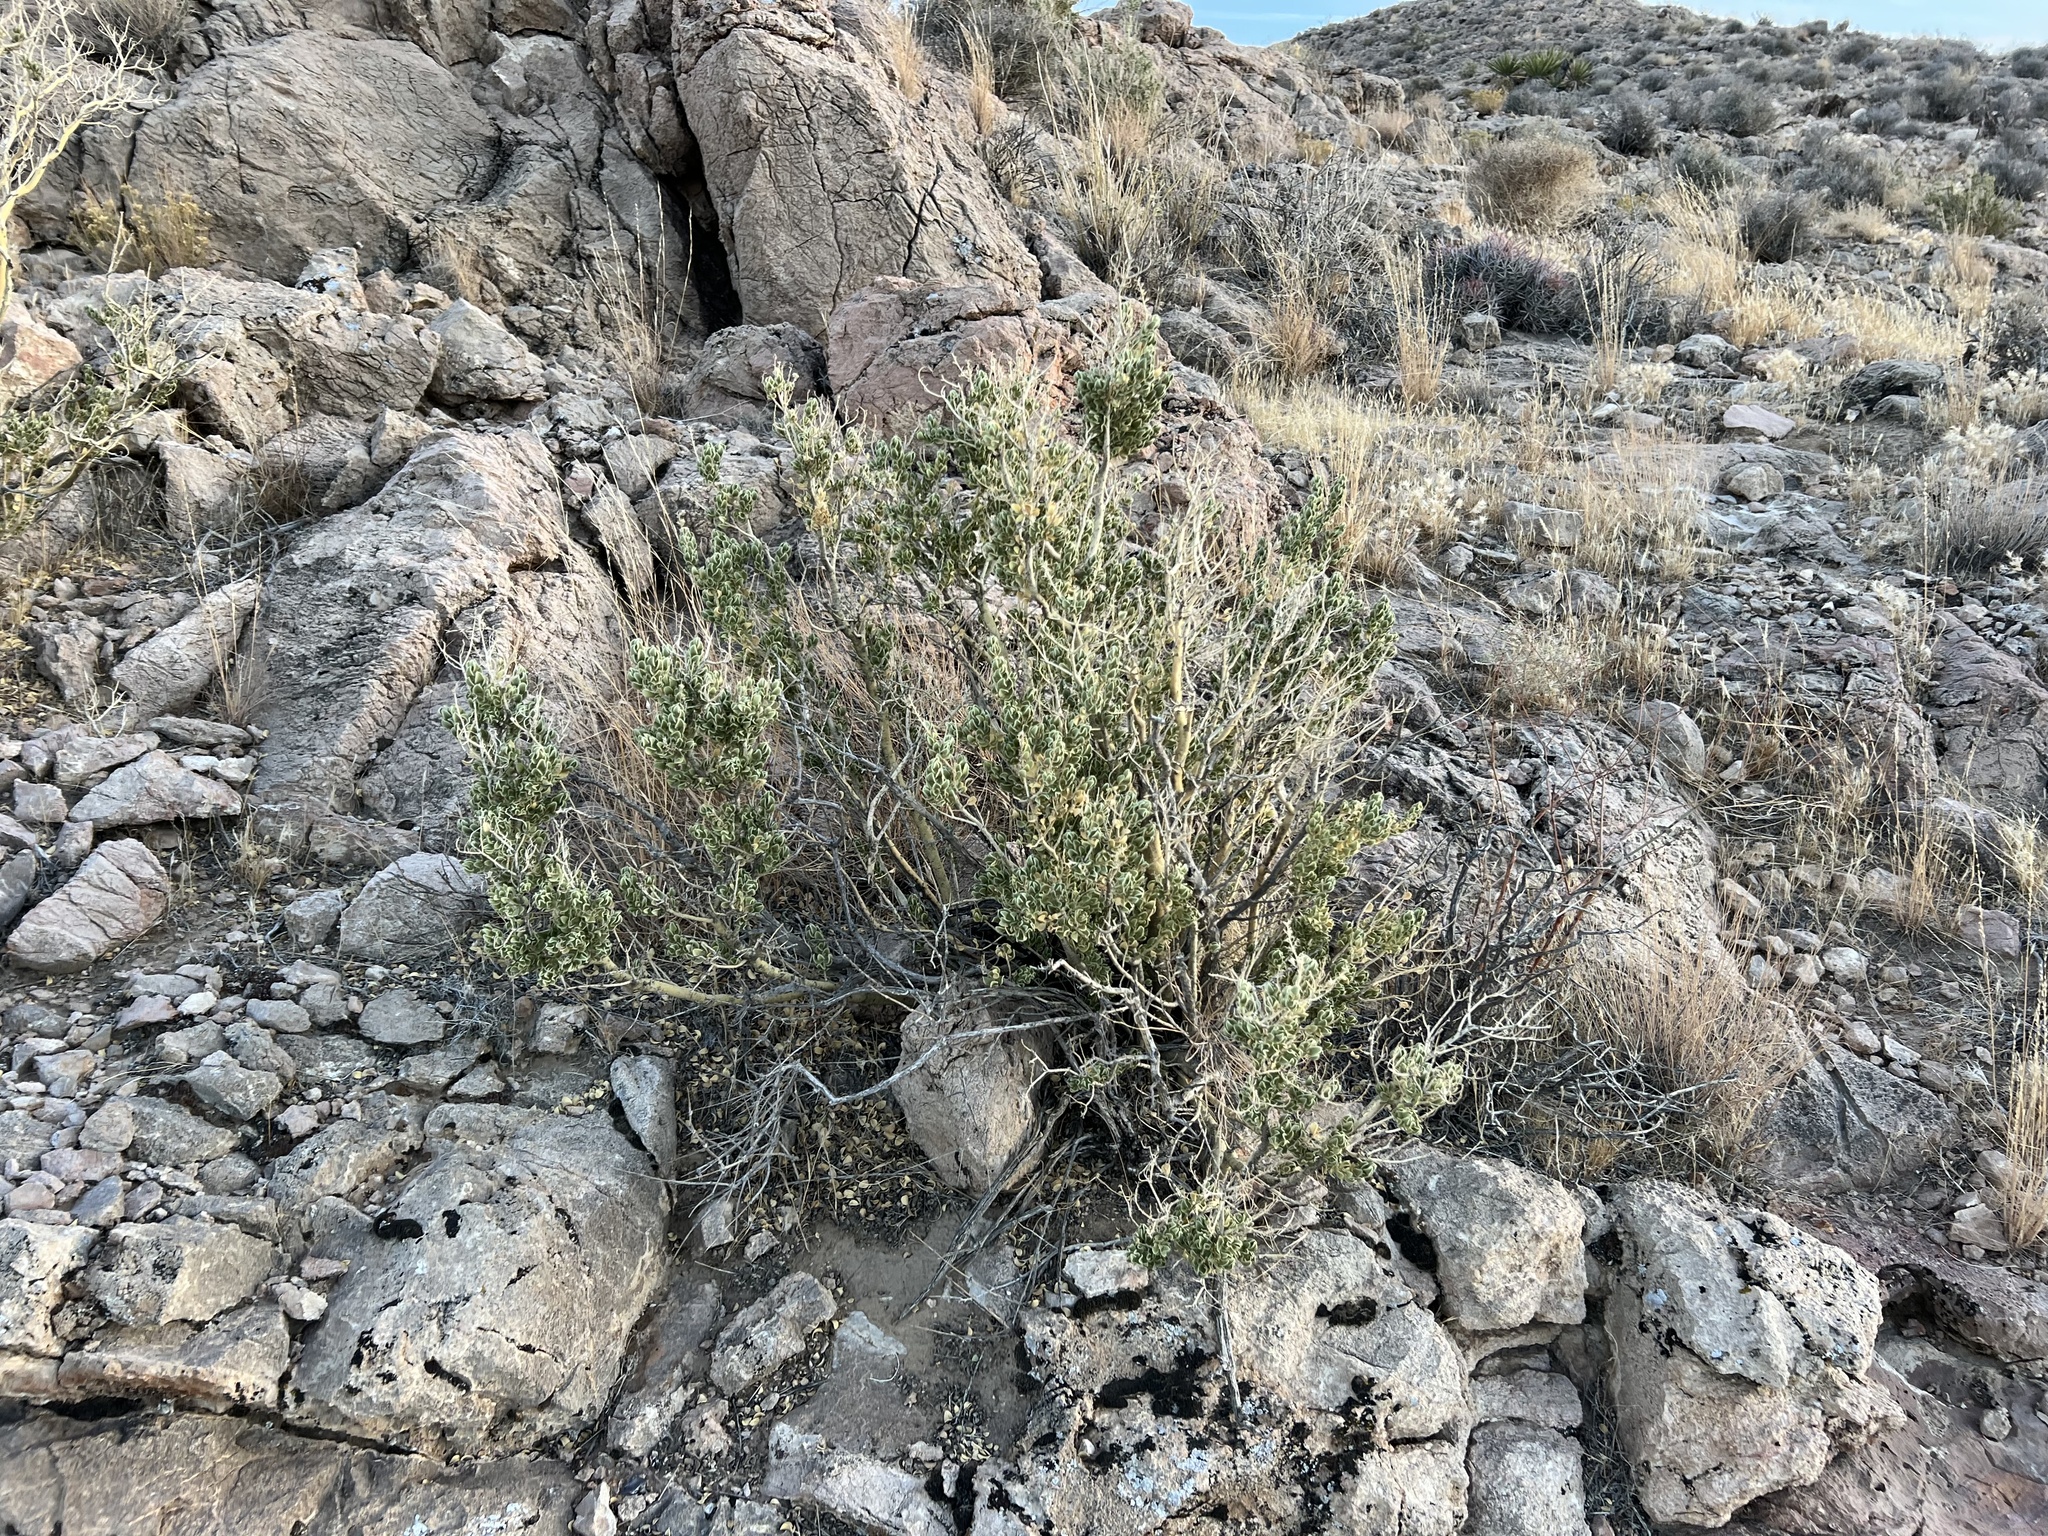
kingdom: Plantae
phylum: Tracheophyta
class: Magnoliopsida
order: Celastrales
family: Celastraceae
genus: Mortonia
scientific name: Mortonia utahensis
